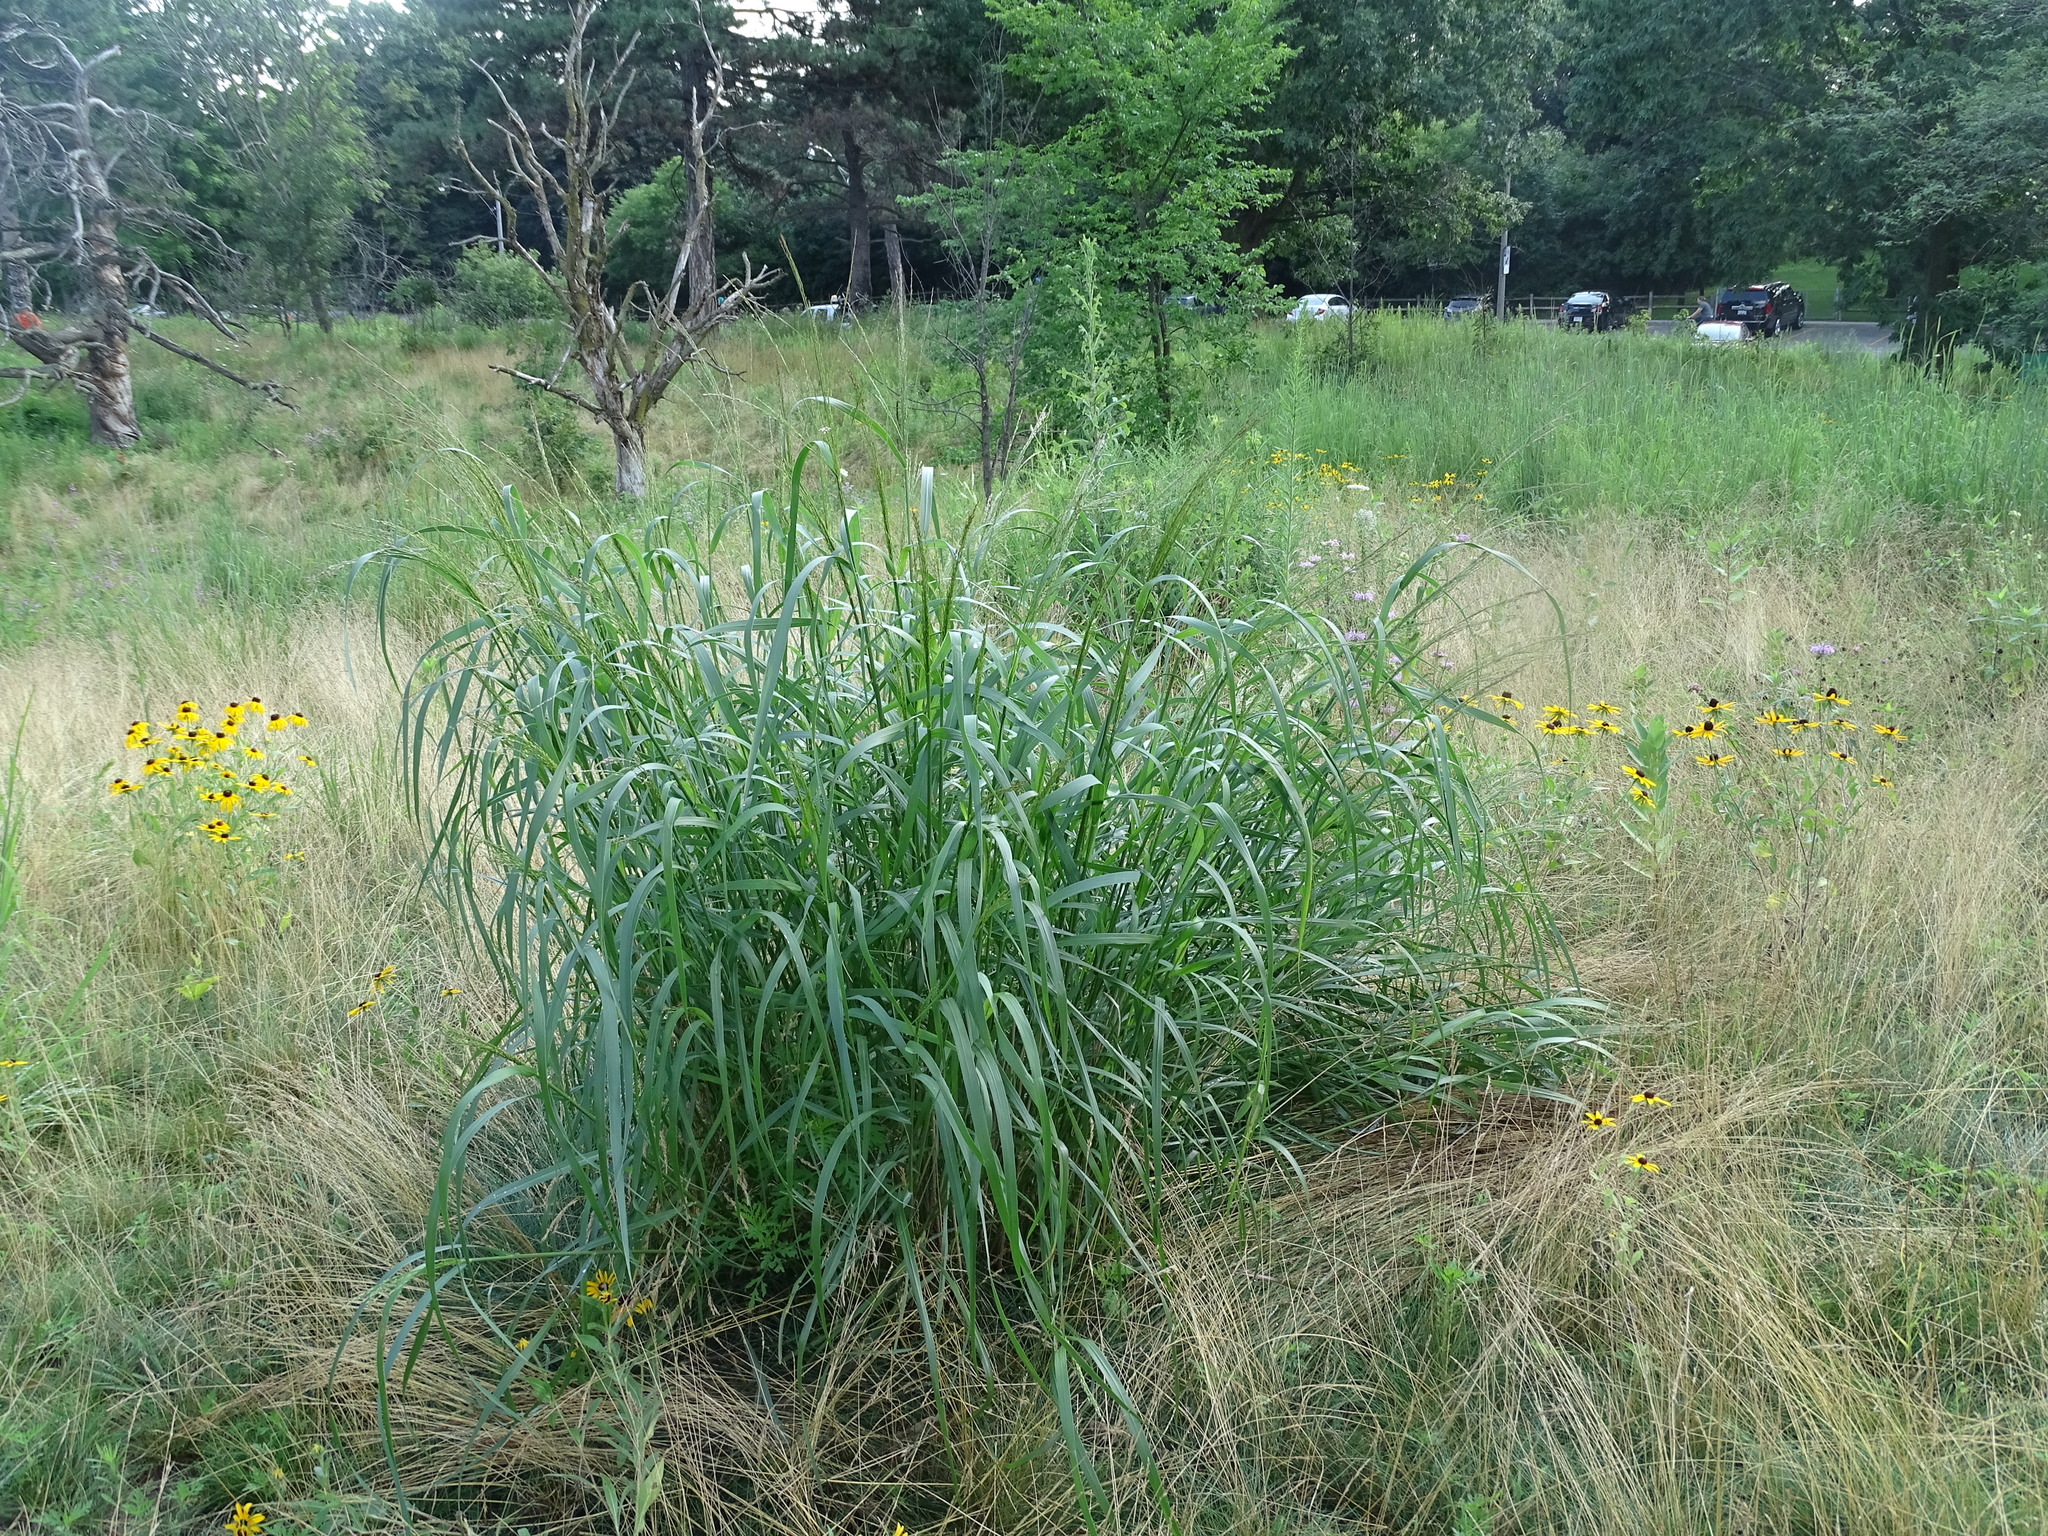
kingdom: Plantae
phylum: Tracheophyta
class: Liliopsida
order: Poales
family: Poaceae
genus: Panicum
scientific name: Panicum virgatum
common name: Switchgrass
